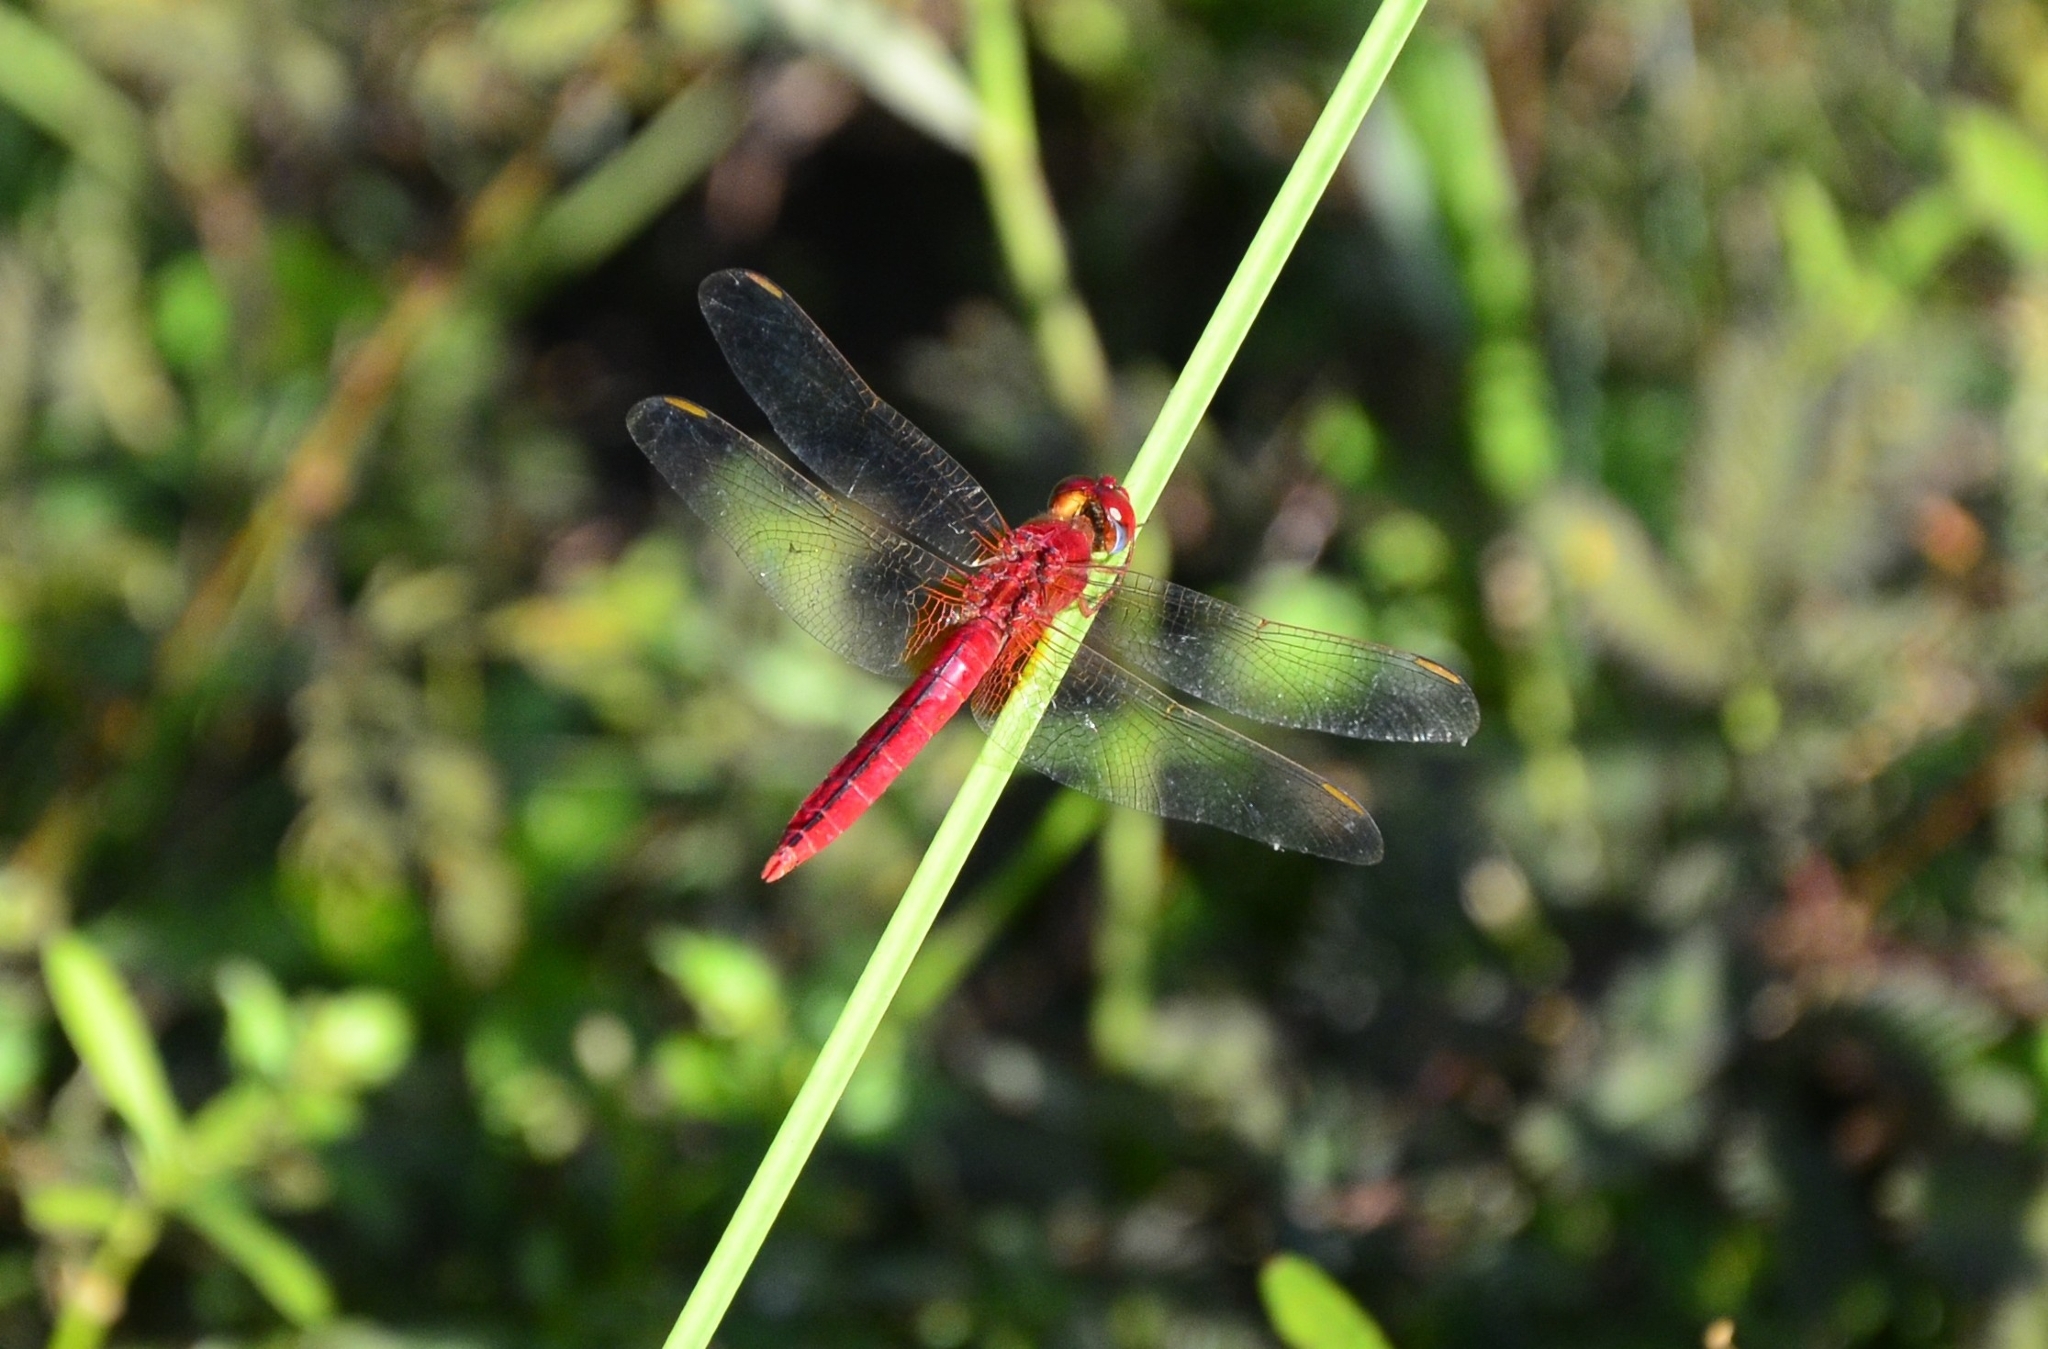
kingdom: Animalia
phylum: Arthropoda
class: Insecta
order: Odonata
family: Libellulidae
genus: Crocothemis
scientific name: Crocothemis servilia
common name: Scarlet skimmer
